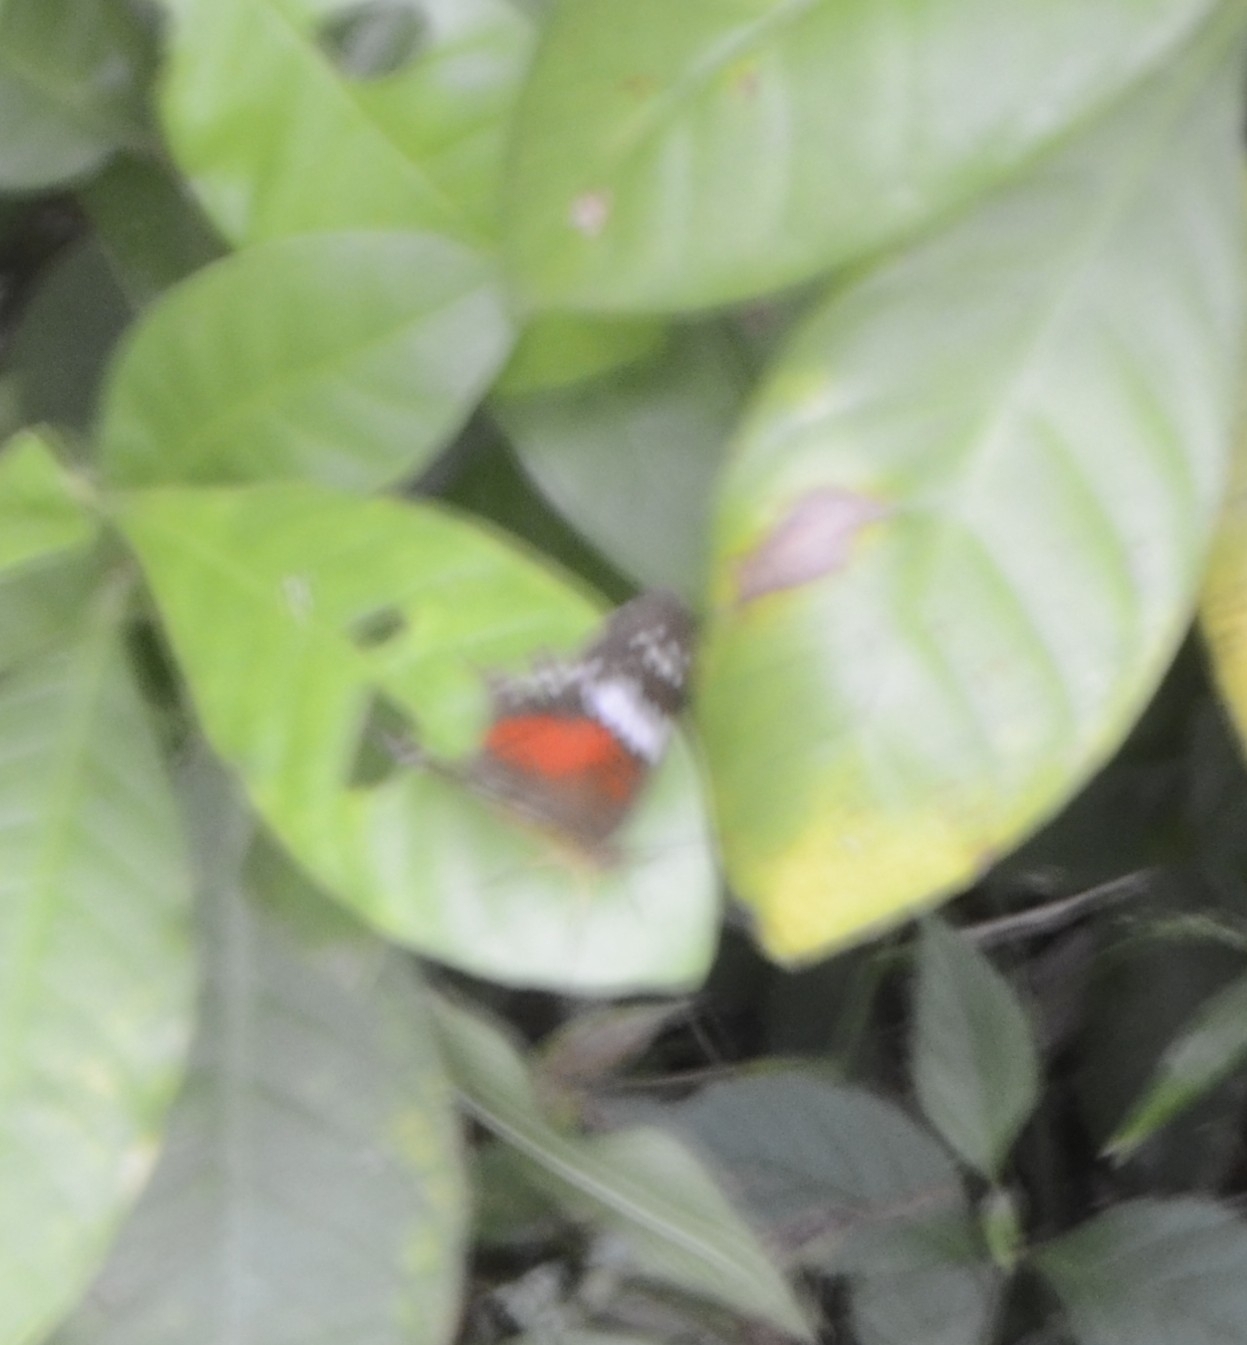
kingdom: Animalia
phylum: Arthropoda
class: Insecta
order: Lepidoptera
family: Nymphalidae
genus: Anartia
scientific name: Anartia amathea
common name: Red peacock
